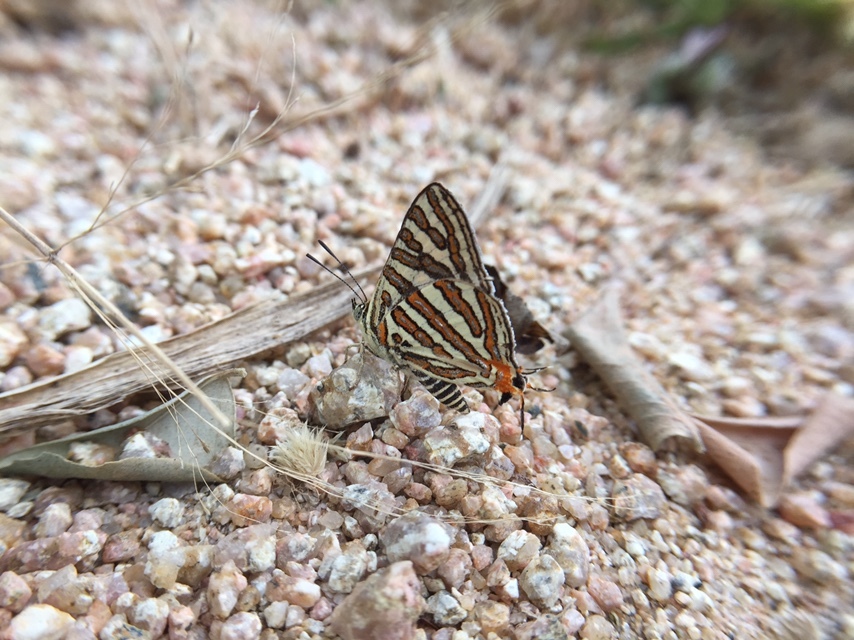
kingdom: Animalia
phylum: Arthropoda
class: Insecta
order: Lepidoptera
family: Lycaenidae
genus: Cigaritis
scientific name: Cigaritis vulcanus
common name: Common silverline
